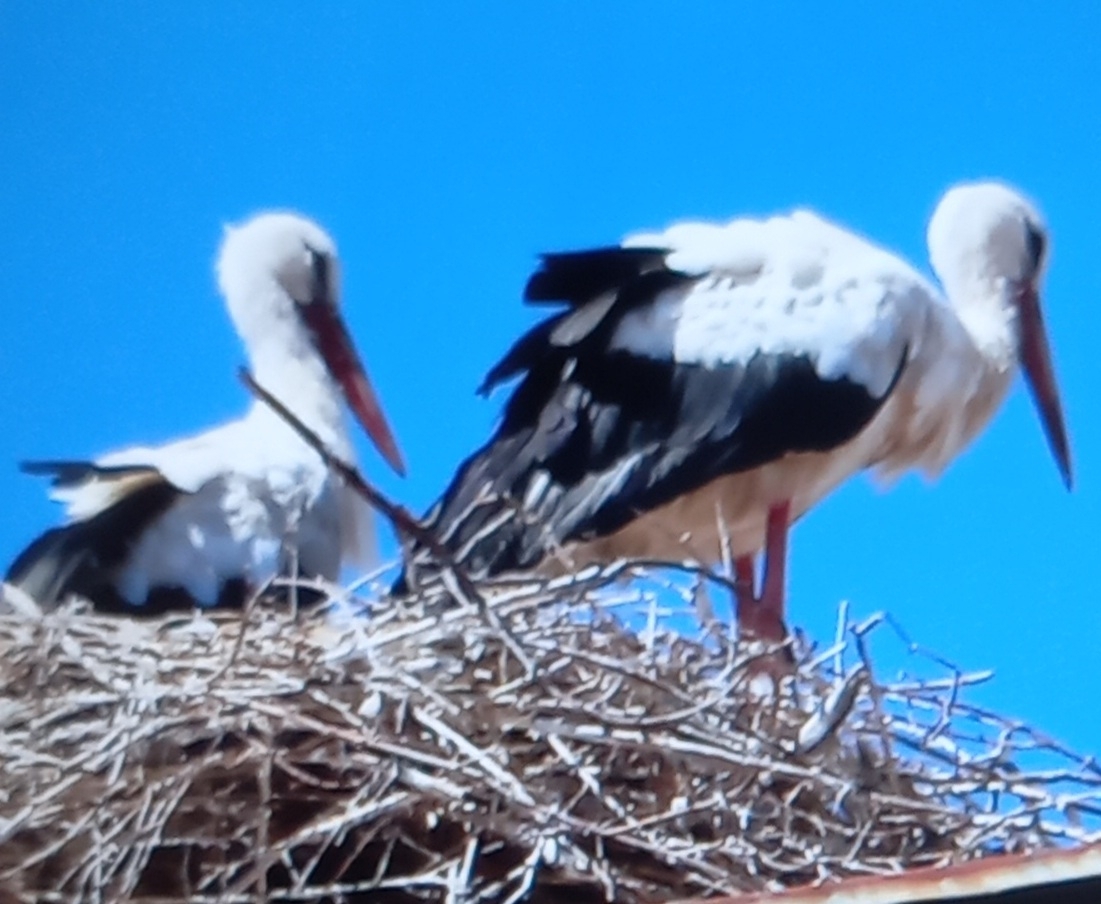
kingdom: Animalia
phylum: Chordata
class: Aves
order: Ciconiiformes
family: Ciconiidae
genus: Ciconia
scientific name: Ciconia ciconia
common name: White stork
